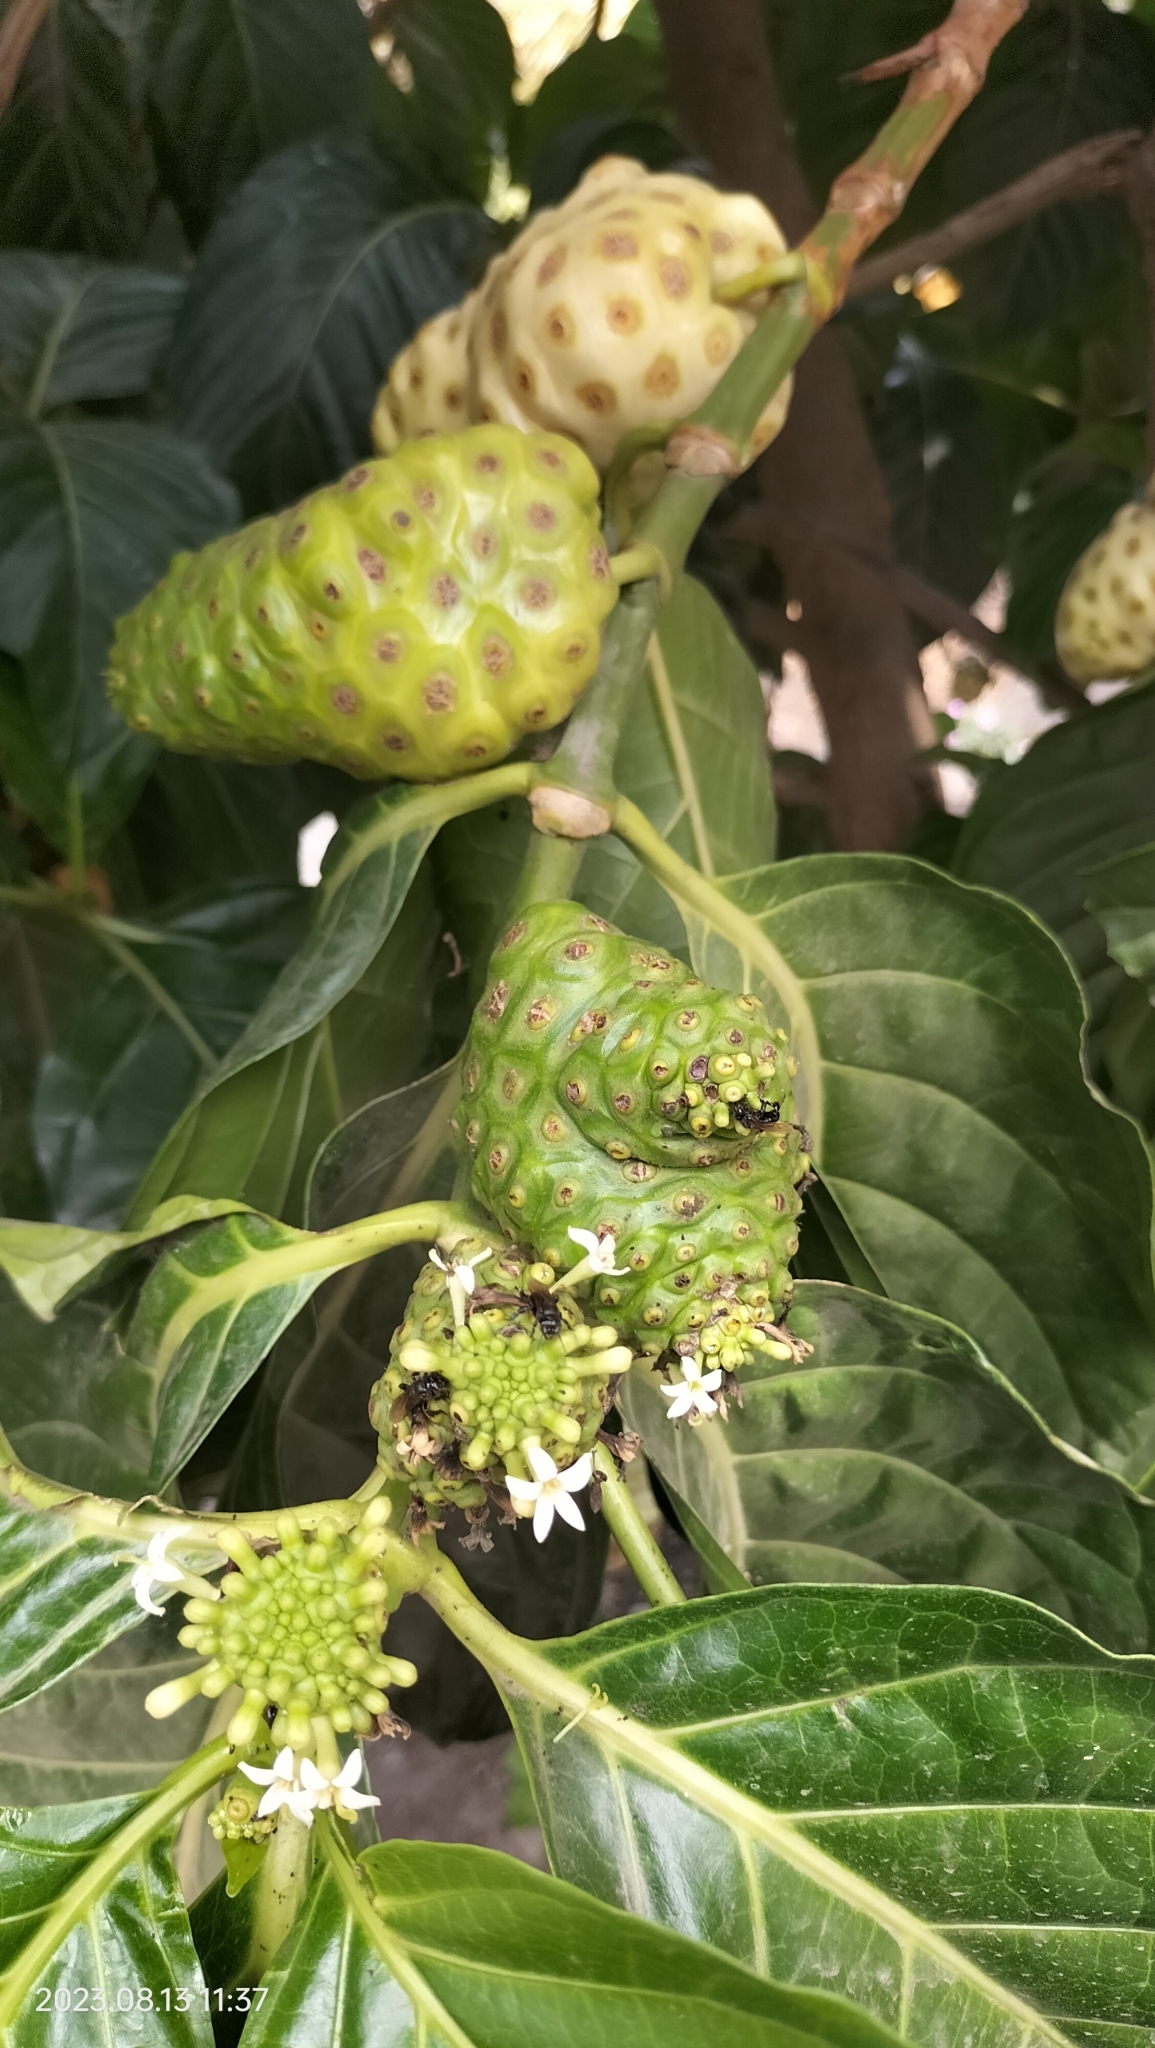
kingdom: Plantae
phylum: Tracheophyta
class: Magnoliopsida
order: Gentianales
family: Rubiaceae
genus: Morinda
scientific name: Morinda citrifolia
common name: Indian-mulberry
